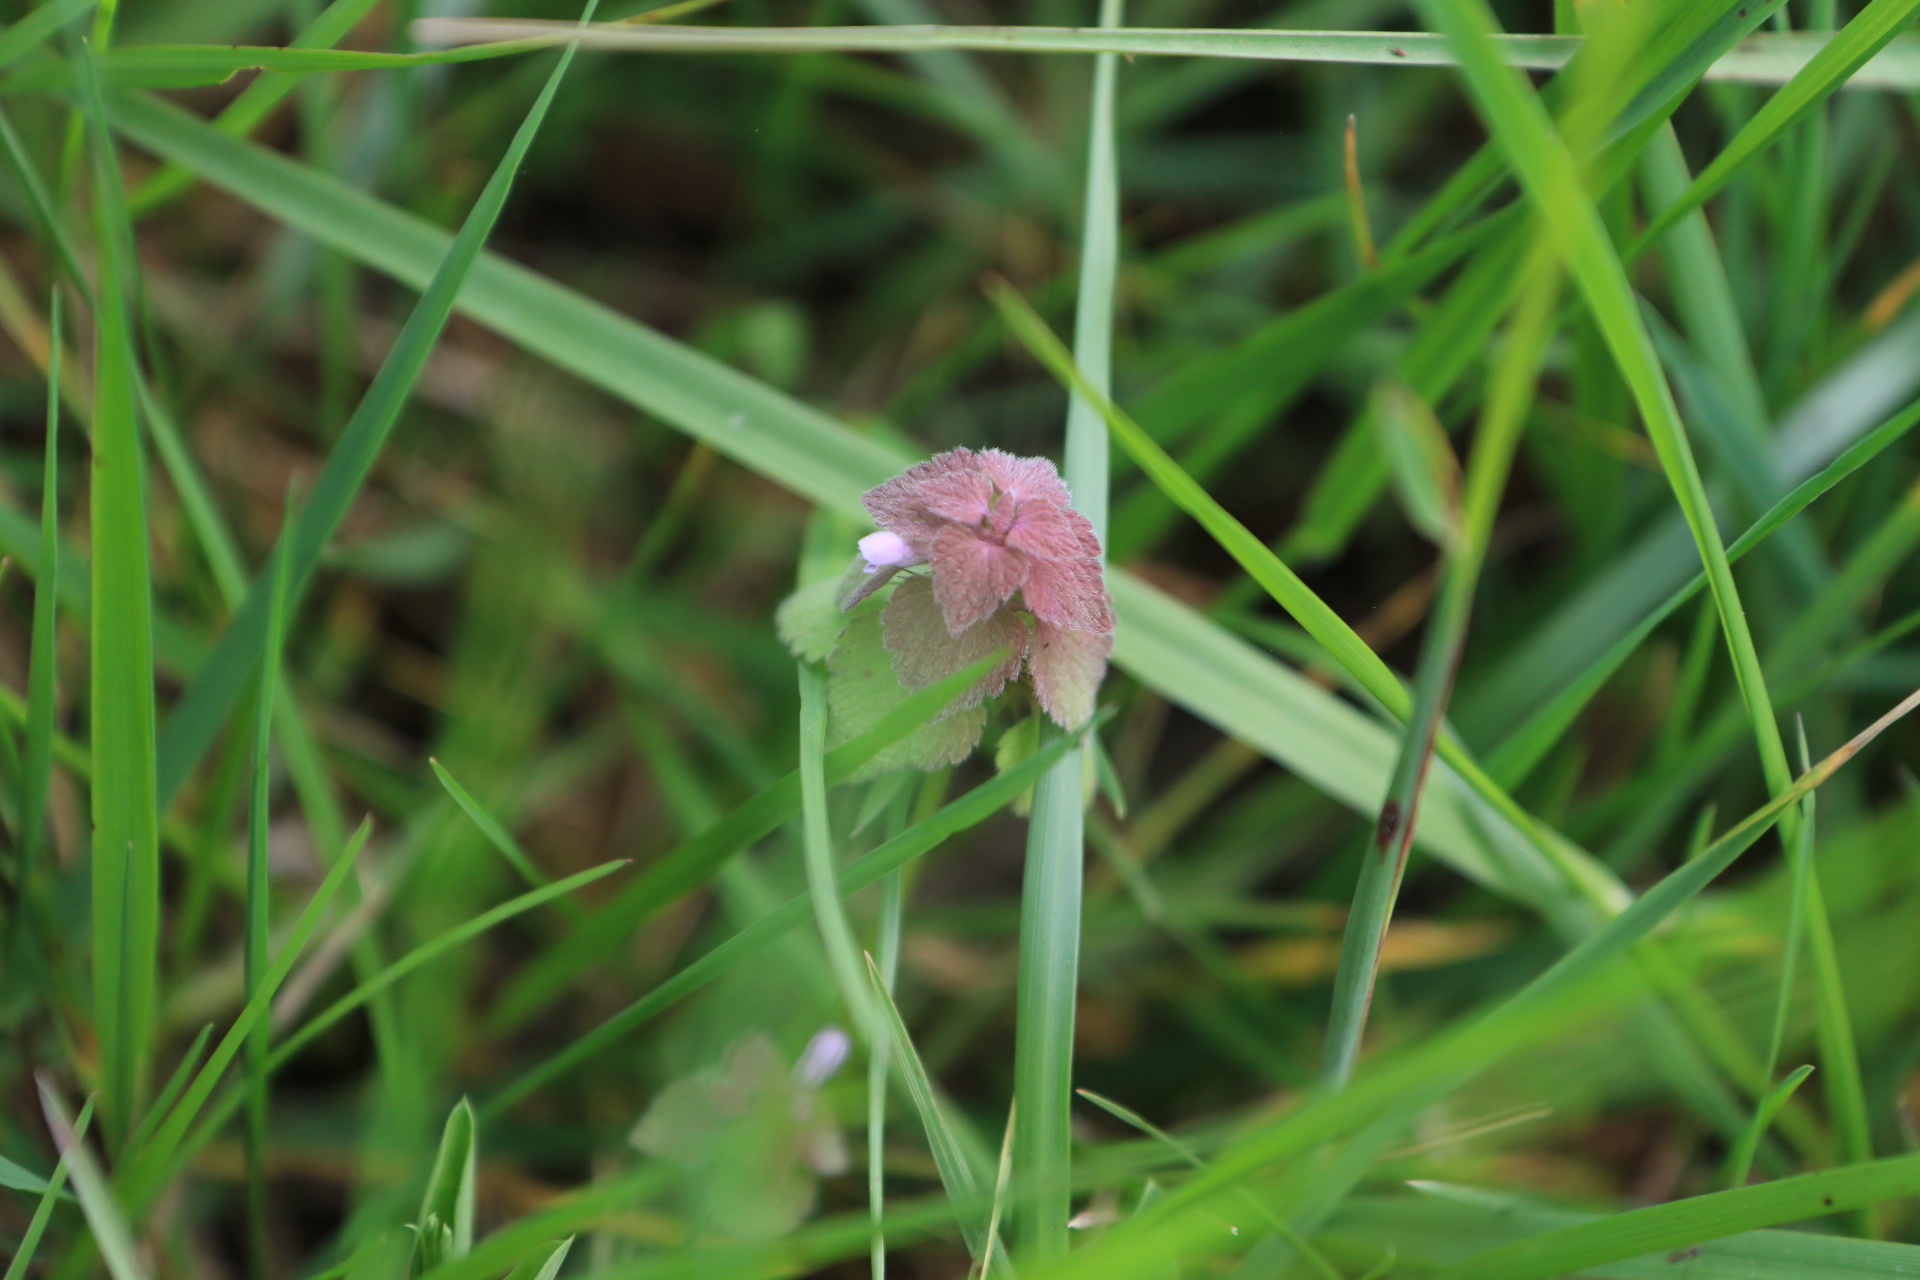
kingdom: Plantae
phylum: Tracheophyta
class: Magnoliopsida
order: Lamiales
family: Lamiaceae
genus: Lamium
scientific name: Lamium purpureum
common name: Red dead-nettle
